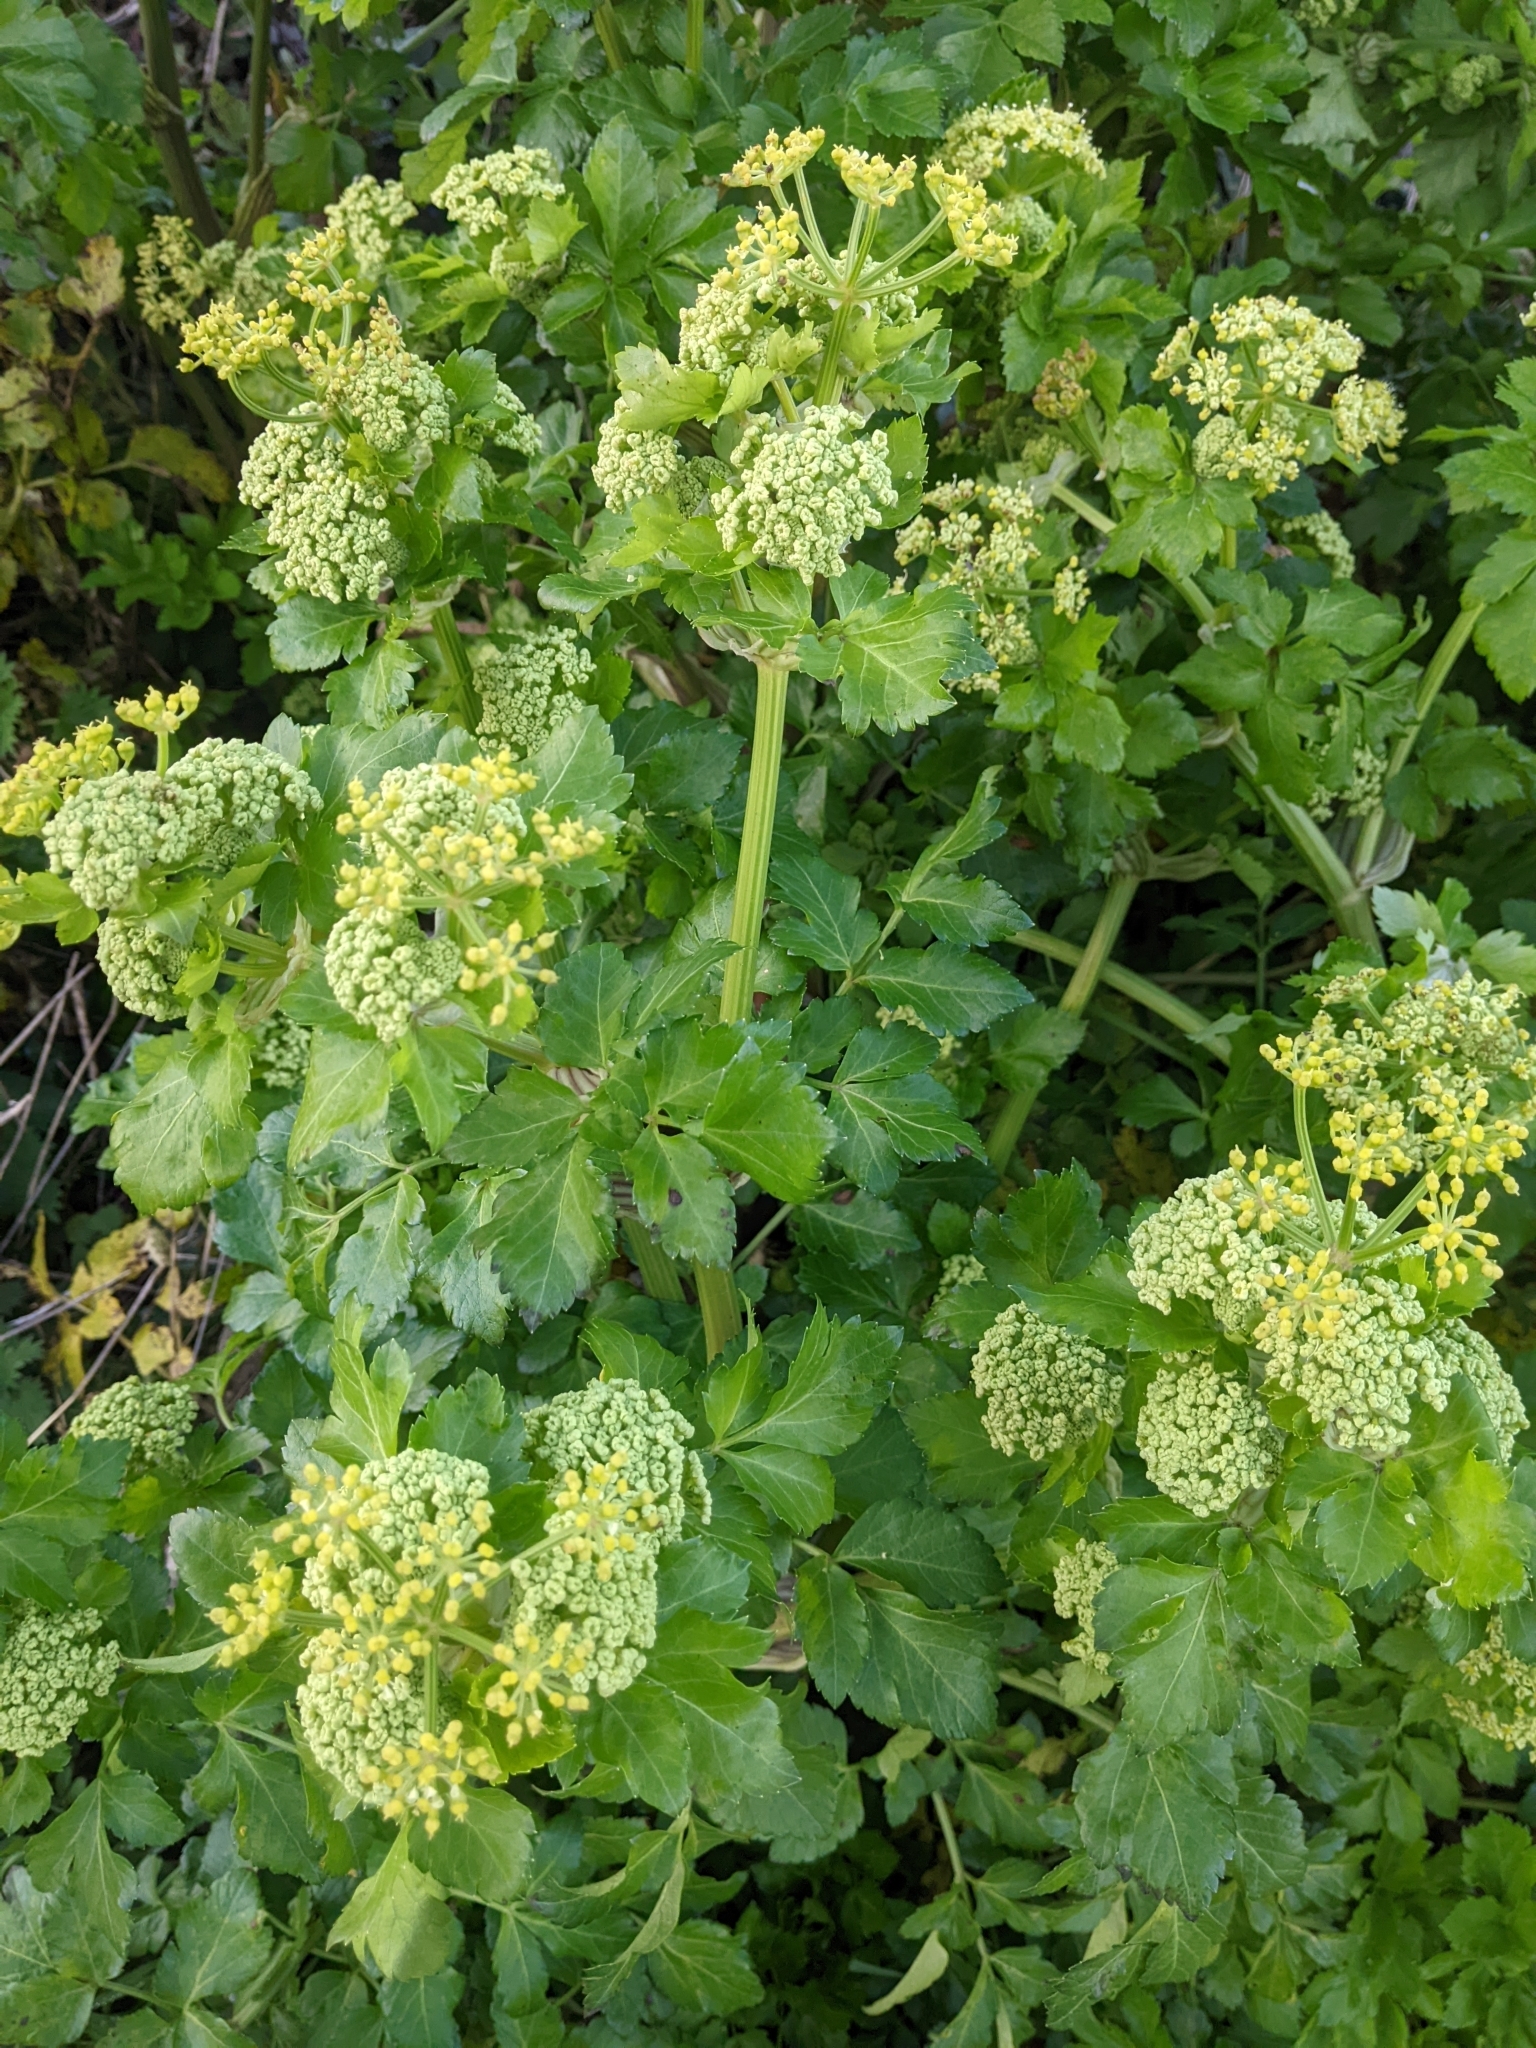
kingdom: Plantae
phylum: Tracheophyta
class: Magnoliopsida
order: Apiales
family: Apiaceae
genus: Smyrnium
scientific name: Smyrnium olusatrum
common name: Alexanders
